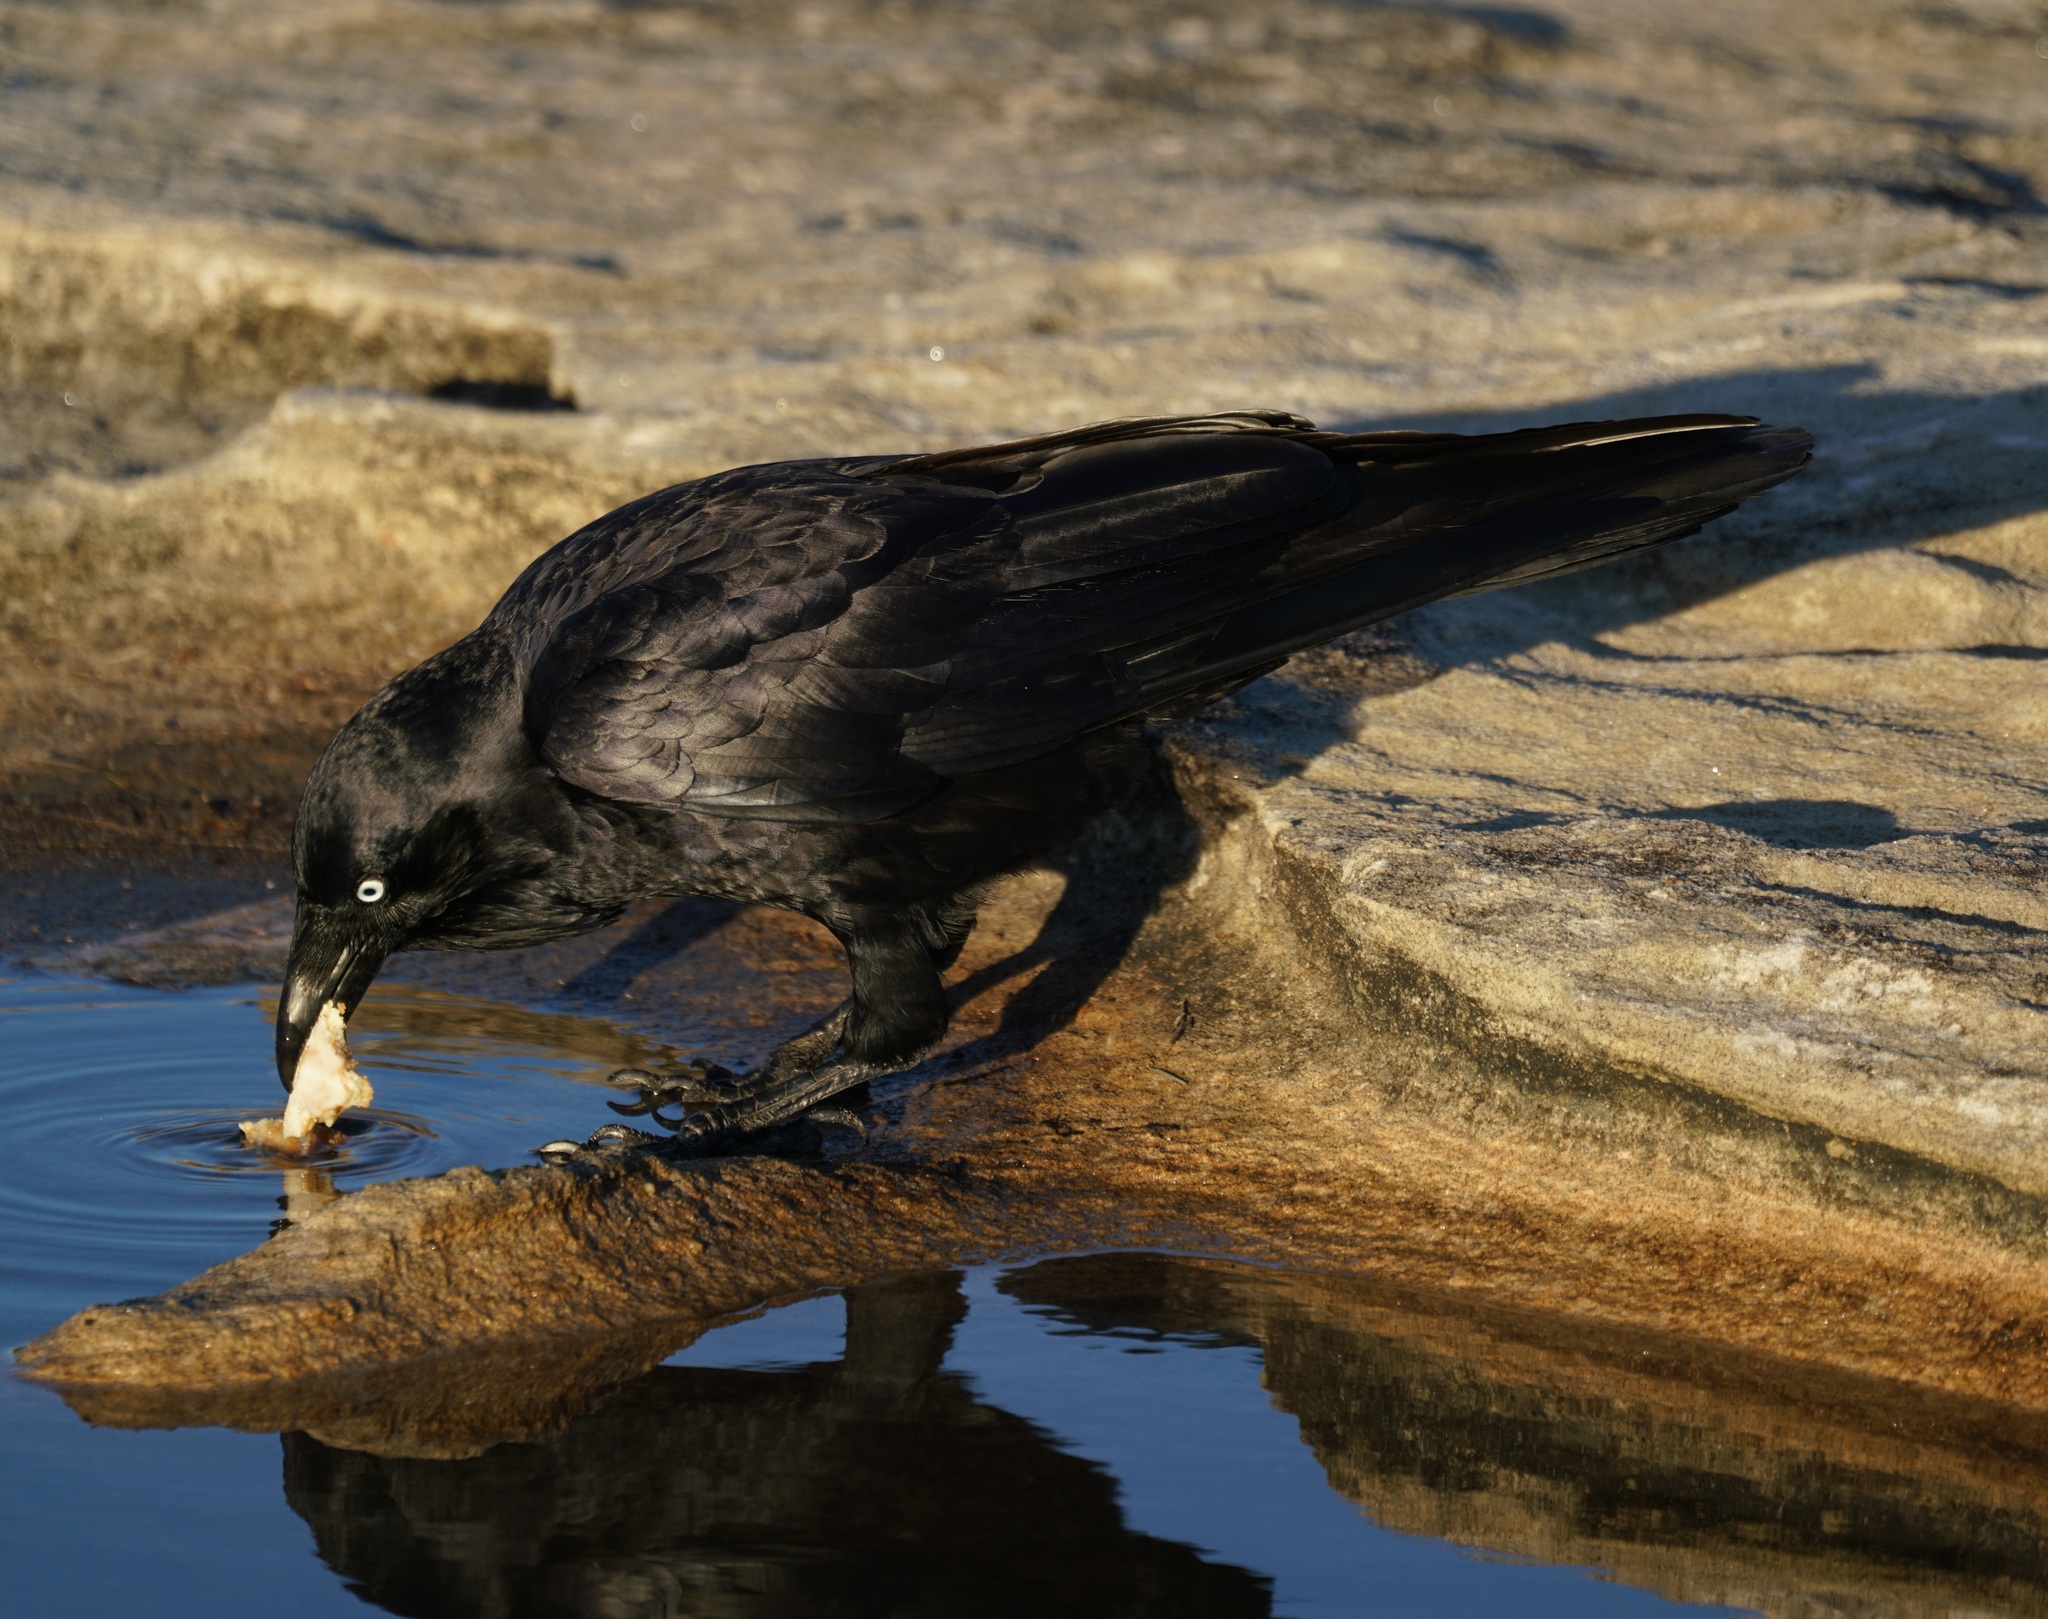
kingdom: Animalia
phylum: Chordata
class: Aves
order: Passeriformes
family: Corvidae
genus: Corvus
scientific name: Corvus coronoides
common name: Australian raven
